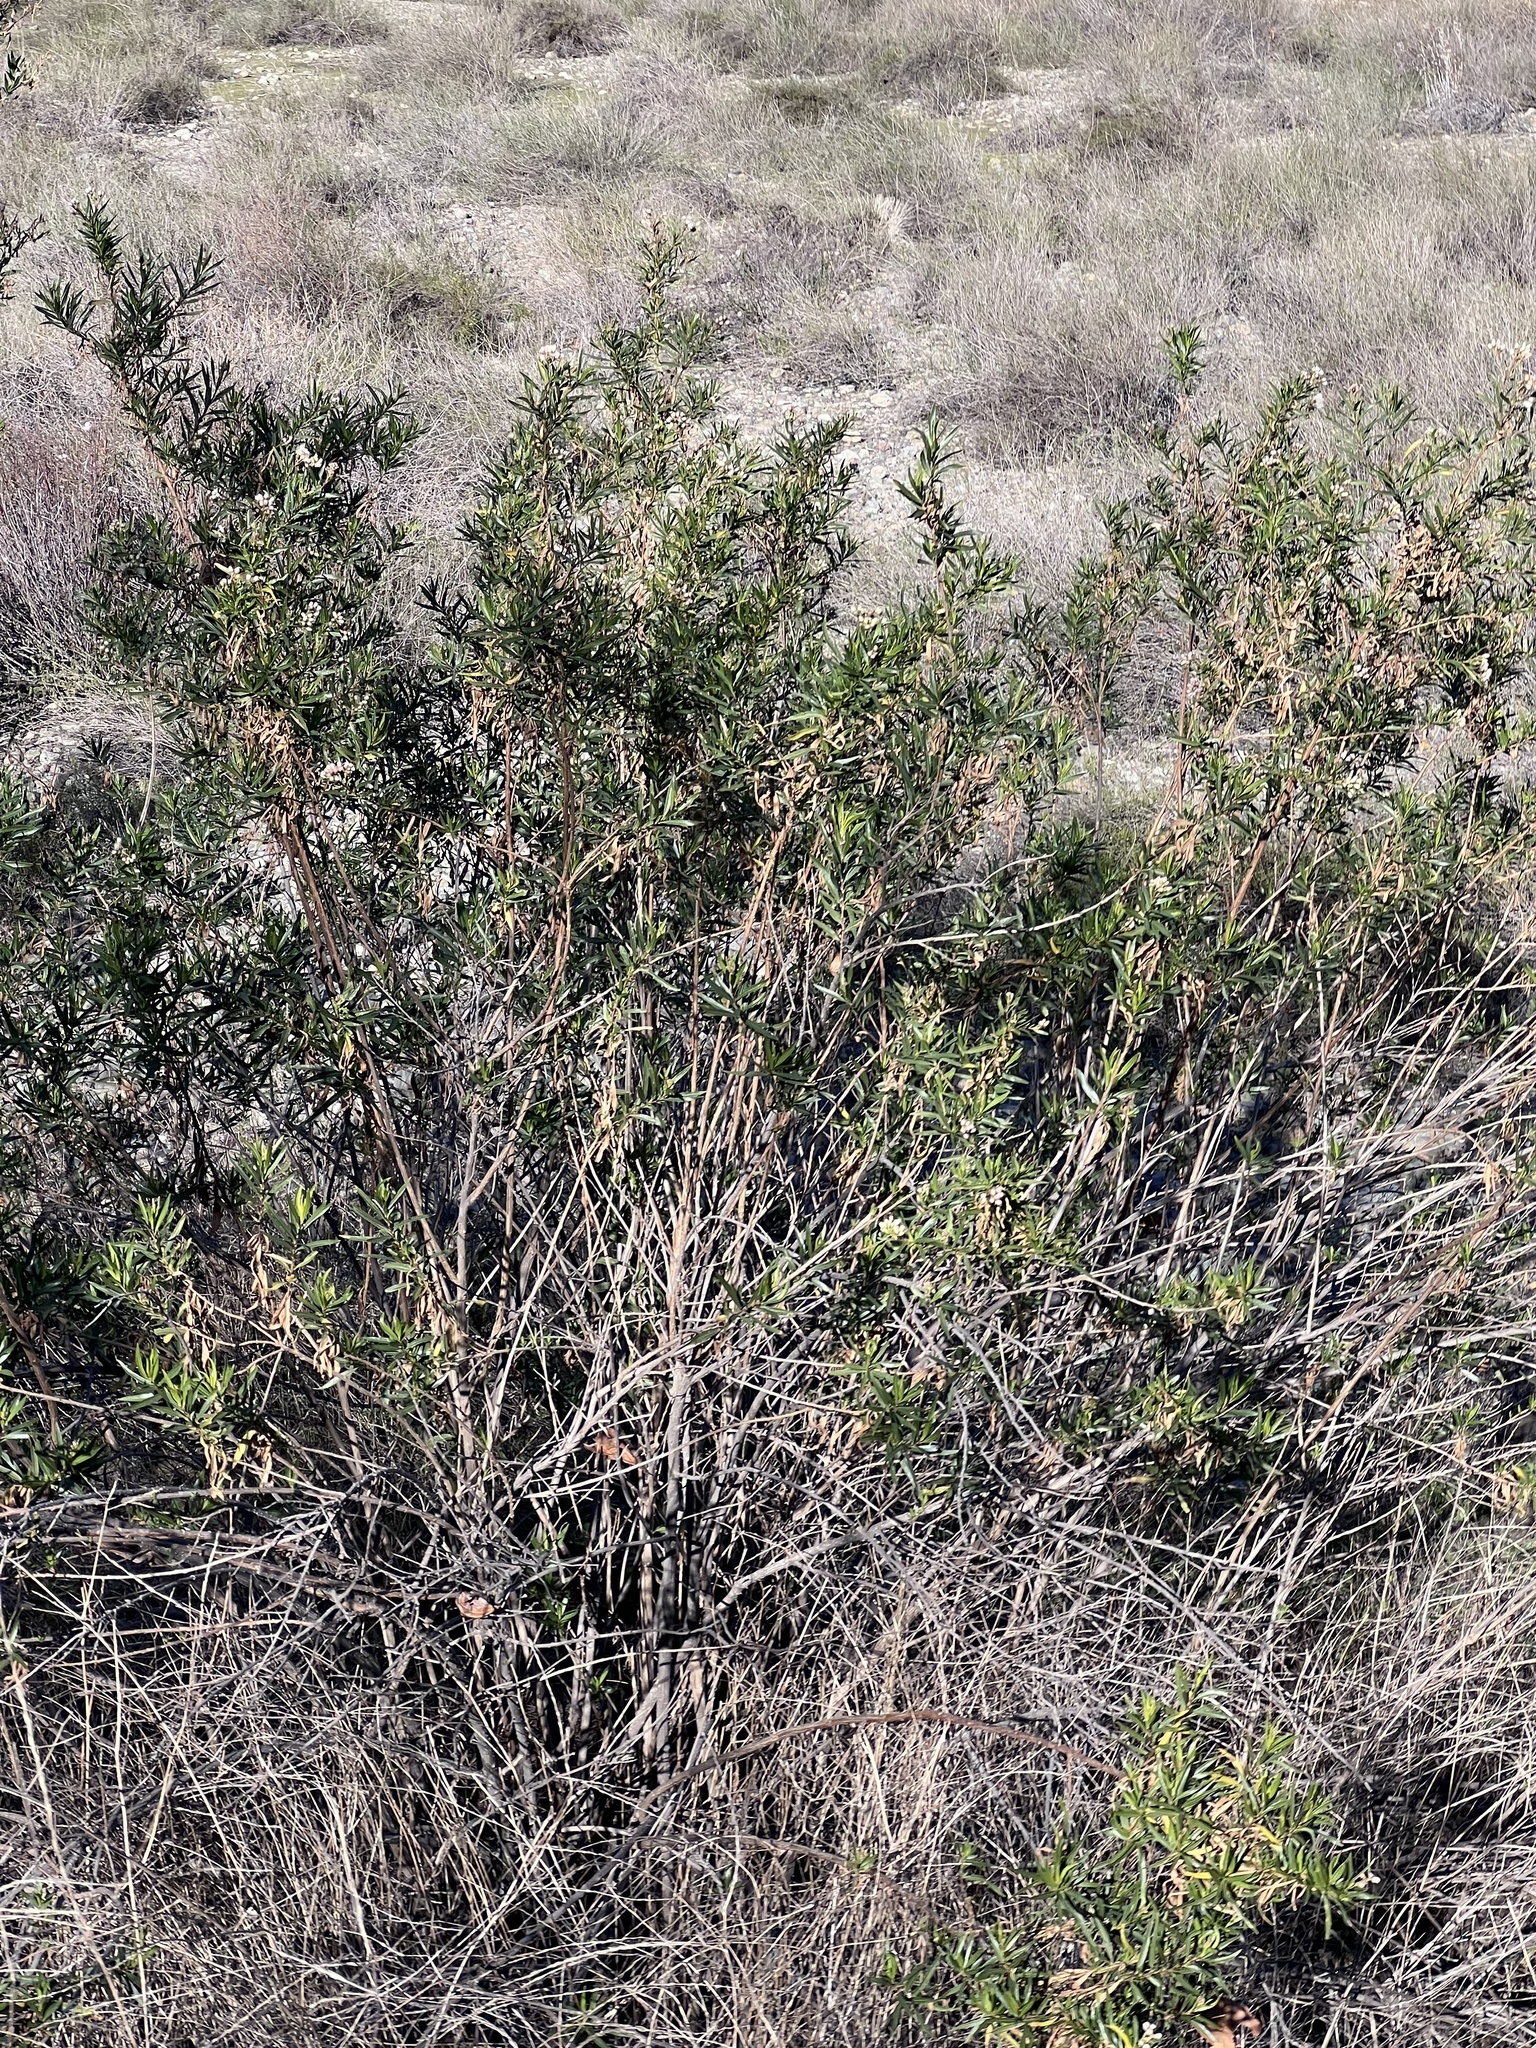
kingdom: Plantae
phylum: Tracheophyta
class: Magnoliopsida
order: Asterales
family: Asteraceae
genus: Baccharis
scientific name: Baccharis salicifolia
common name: Sticky baccharis
